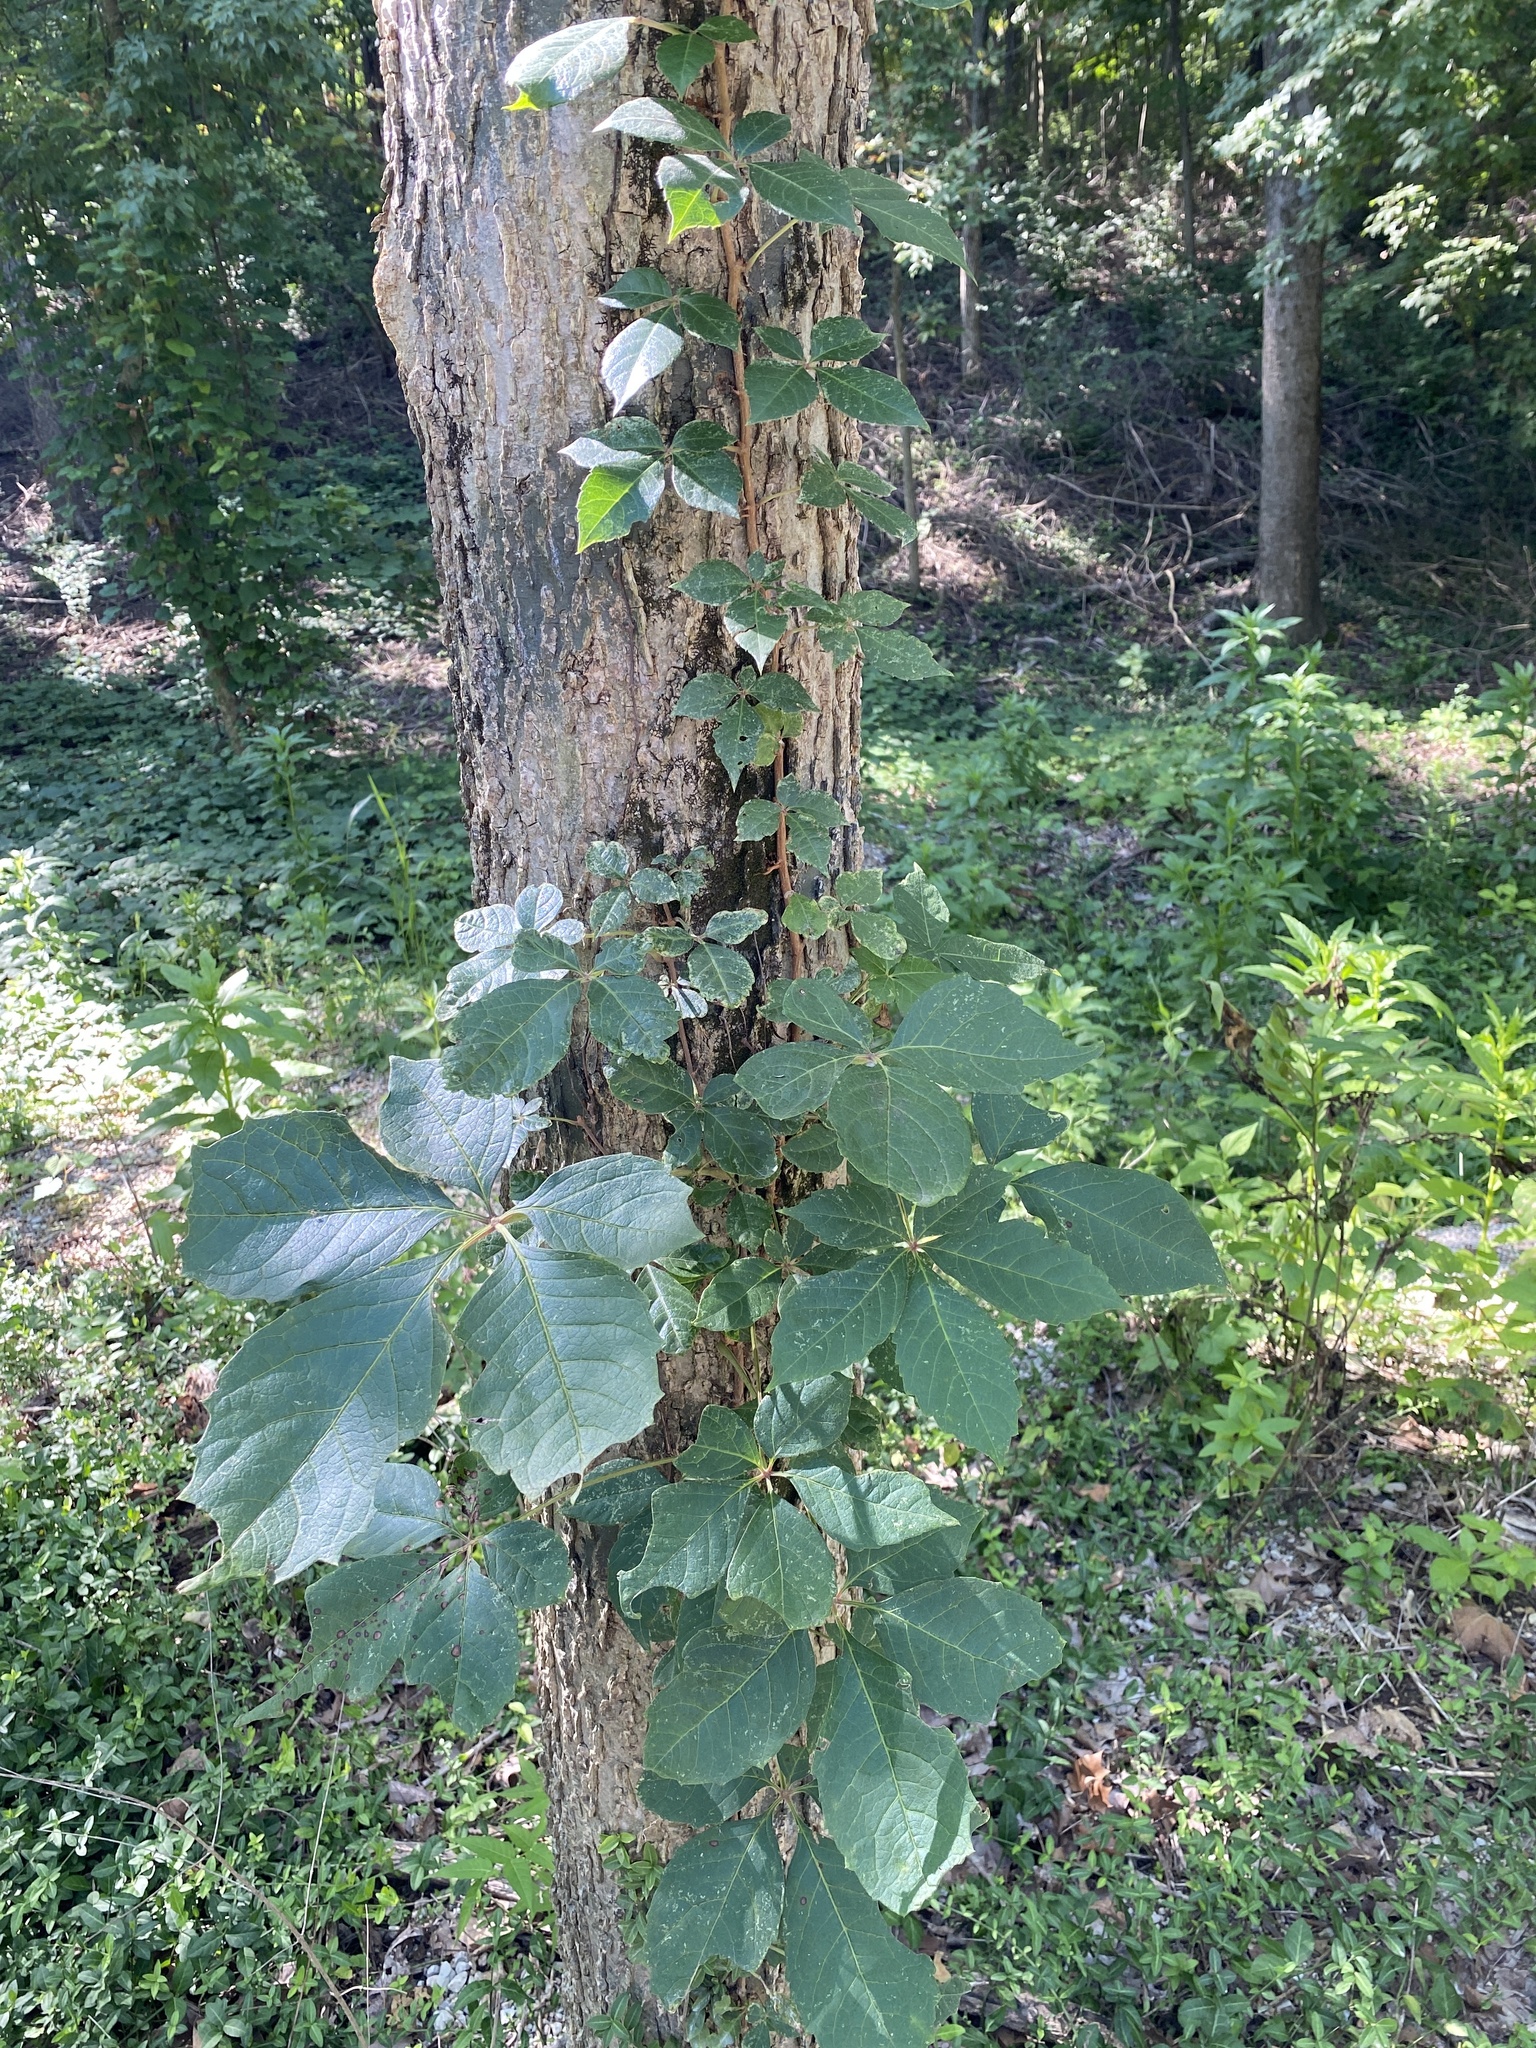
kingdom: Plantae
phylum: Tracheophyta
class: Magnoliopsida
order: Vitales
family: Vitaceae
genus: Parthenocissus
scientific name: Parthenocissus quinquefolia
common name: Virginia-creeper
